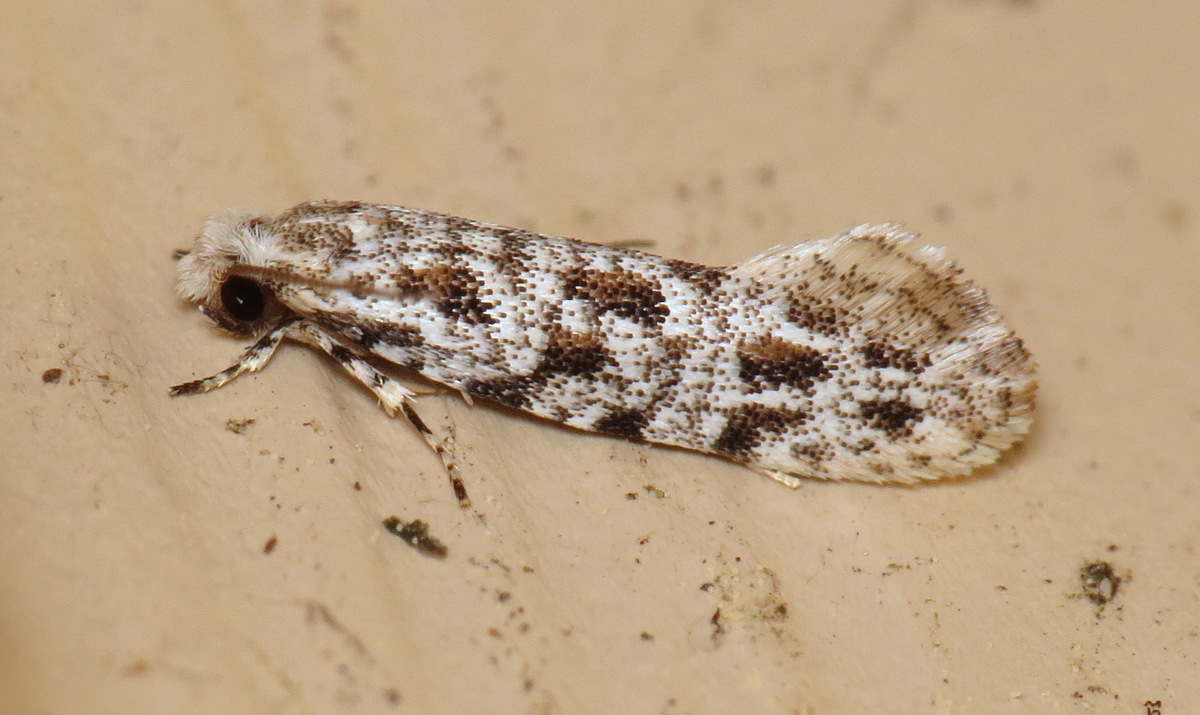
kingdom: Animalia
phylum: Arthropoda
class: Insecta
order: Lepidoptera
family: Meessiidae
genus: Diachorisia
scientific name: Diachorisia velatella
